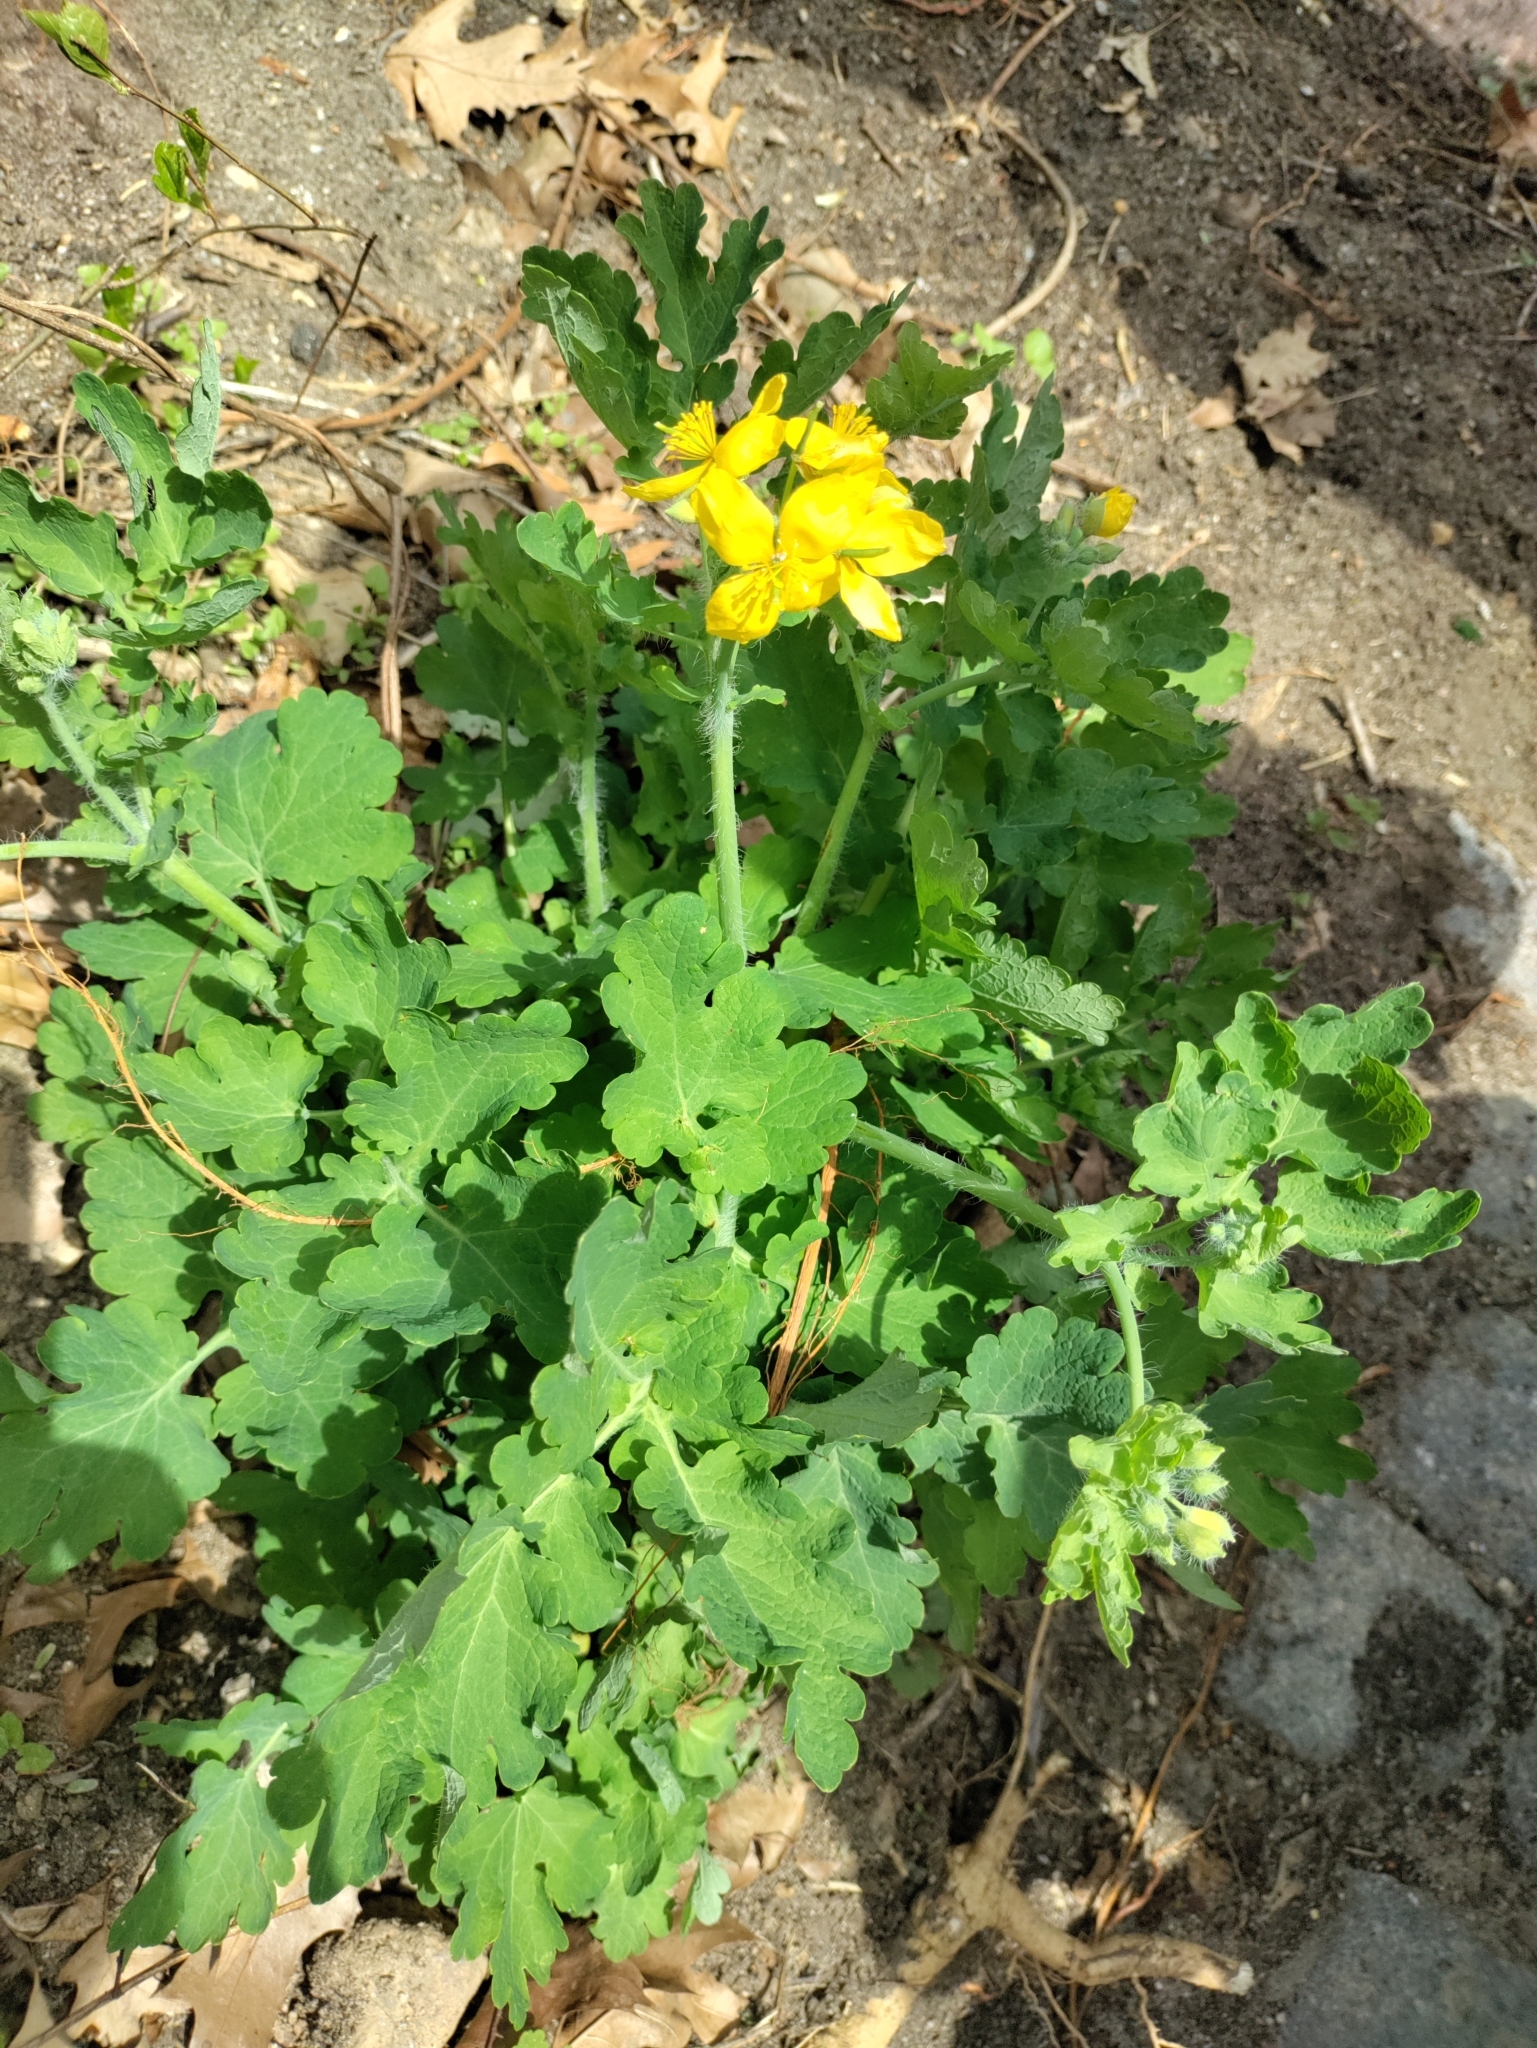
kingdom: Plantae
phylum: Tracheophyta
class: Magnoliopsida
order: Ranunculales
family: Papaveraceae
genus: Chelidonium
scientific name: Chelidonium majus
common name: Greater celandine
